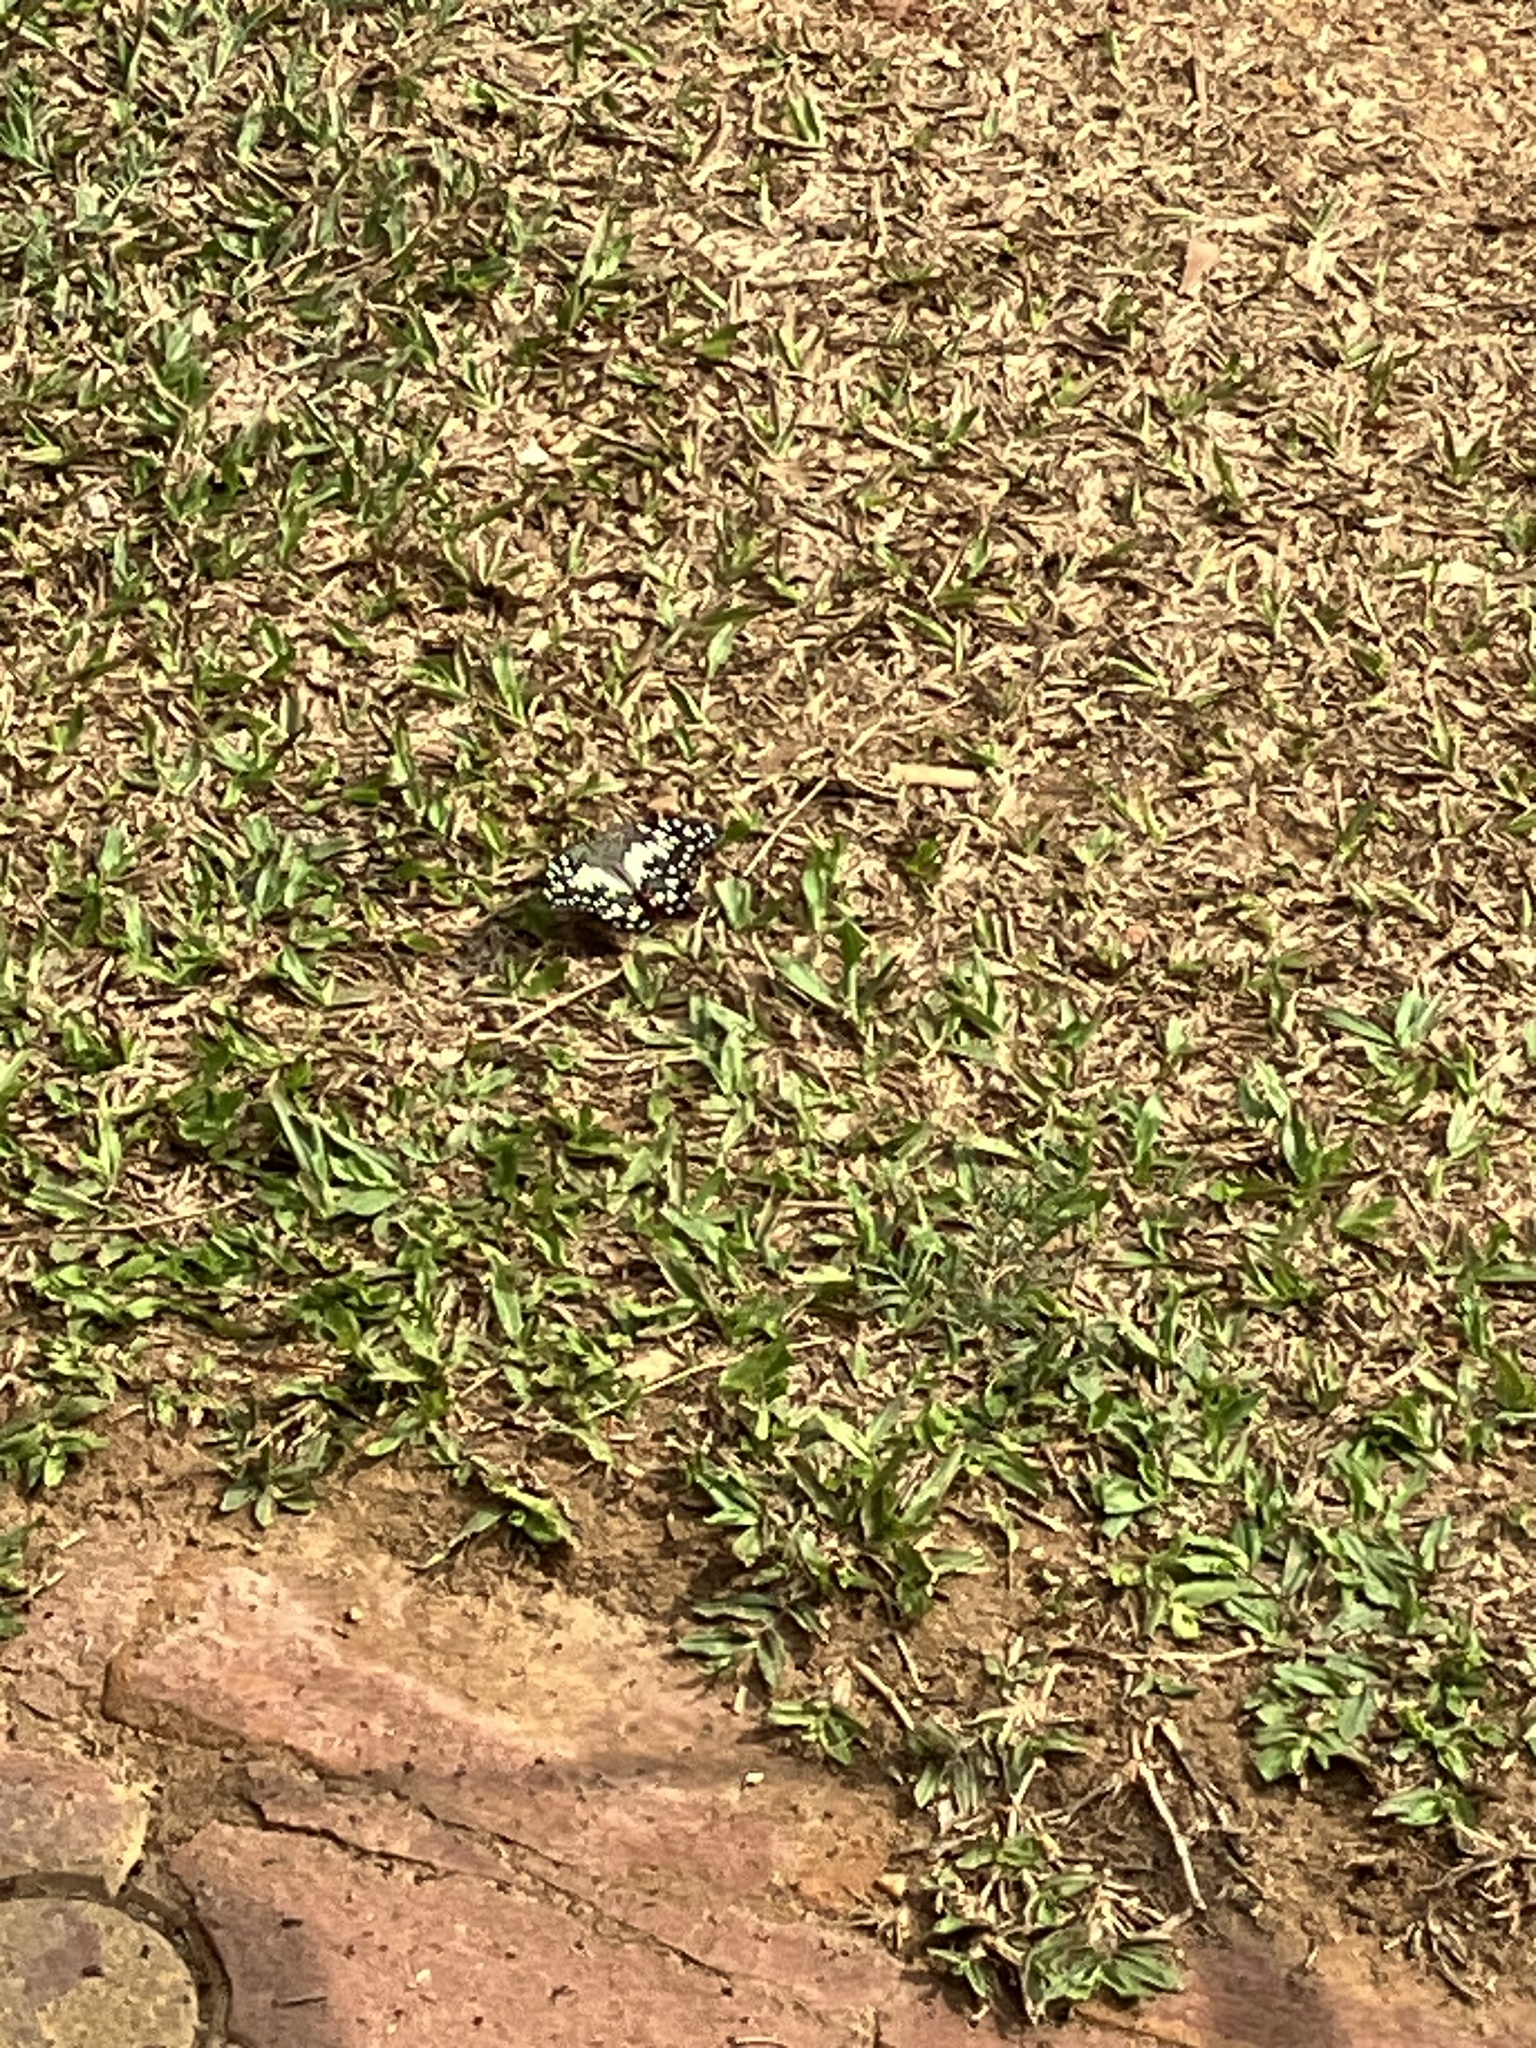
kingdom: Animalia
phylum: Arthropoda
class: Insecta
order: Lepidoptera
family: Papilionidae
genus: Papilio
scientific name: Papilio demoleus
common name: Lime butterfly
